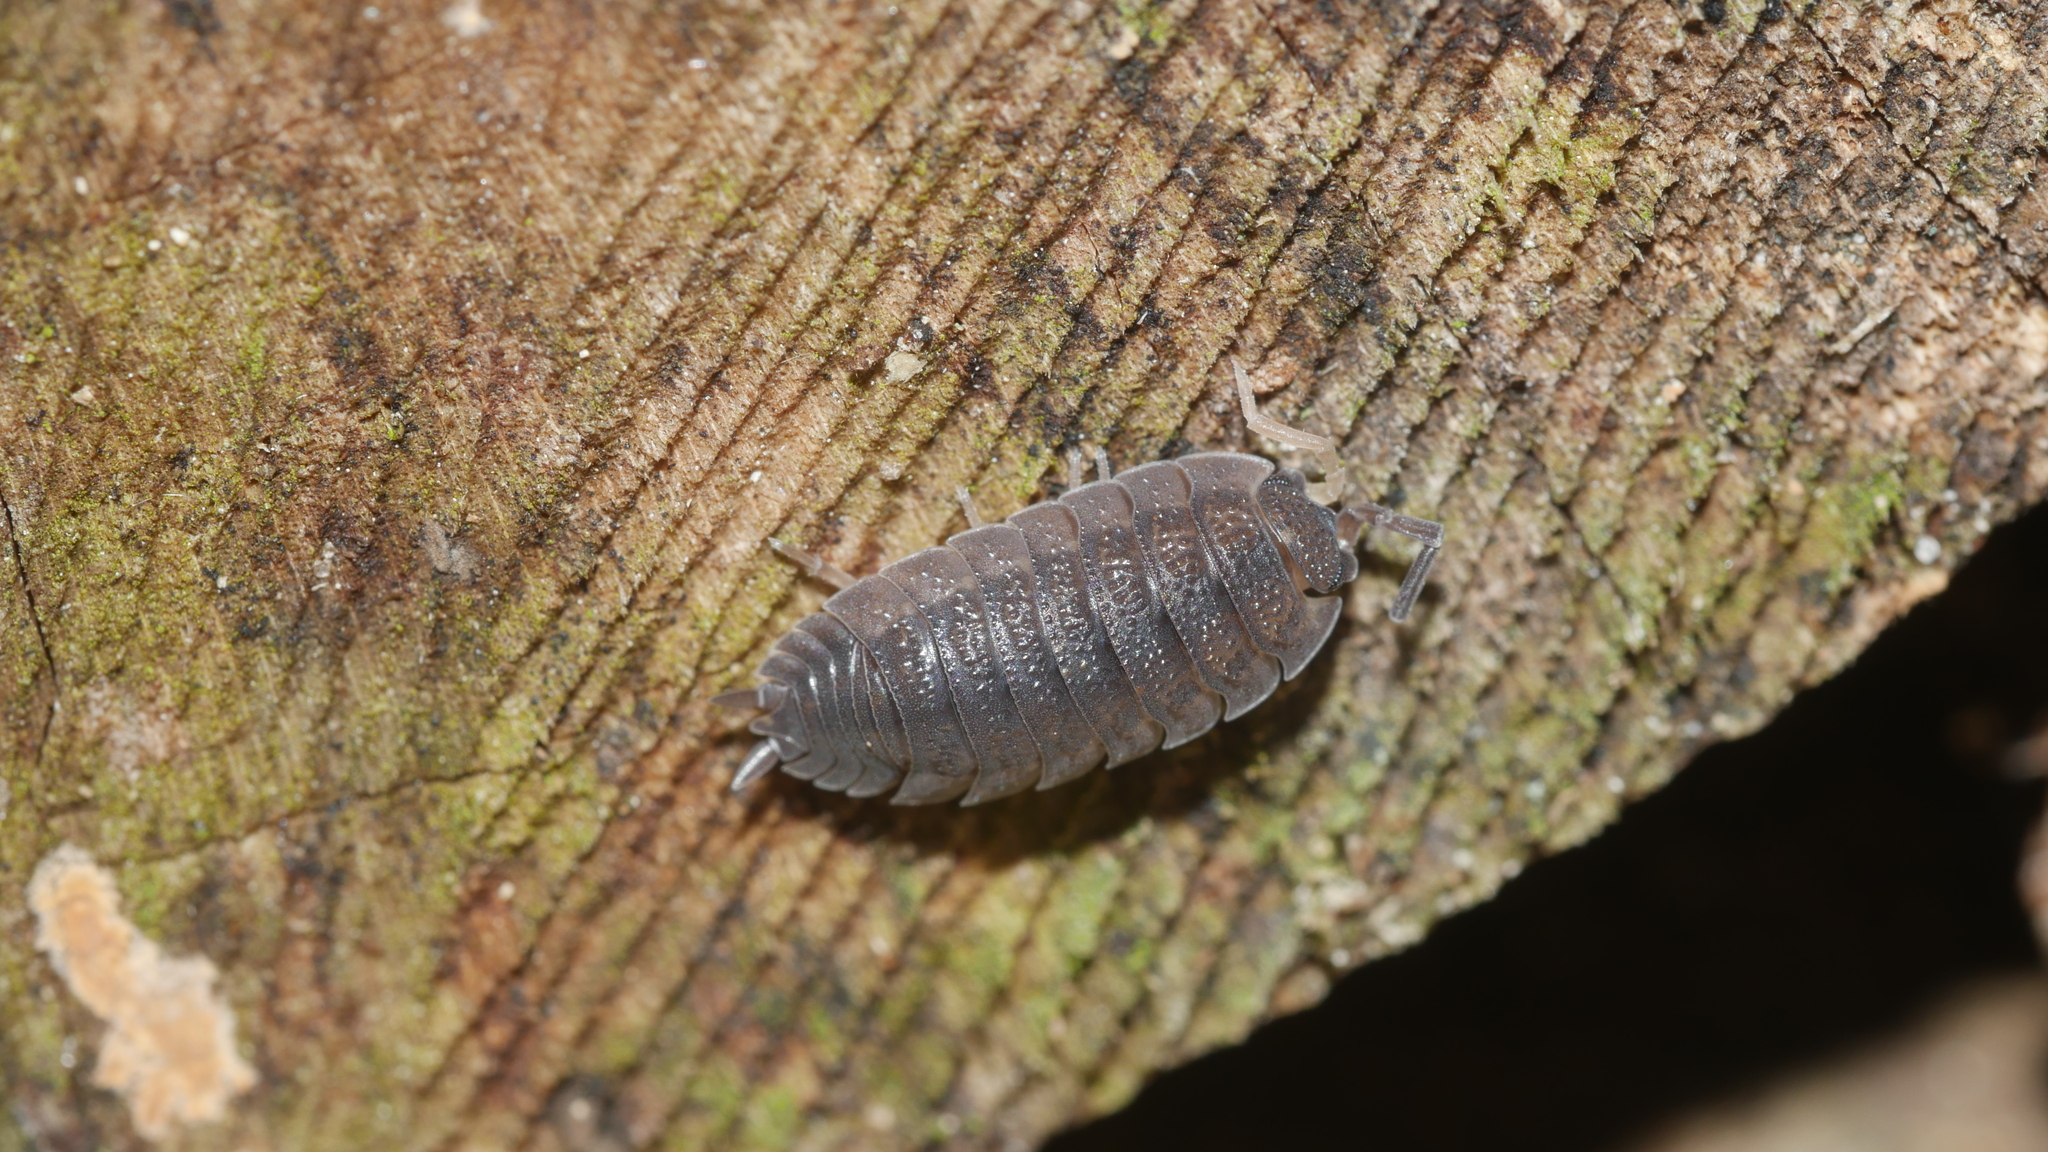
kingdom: Animalia
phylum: Arthropoda
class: Malacostraca
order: Isopoda
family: Porcellionidae
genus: Porcellio
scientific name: Porcellio scaber
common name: Common rough woodlouse
